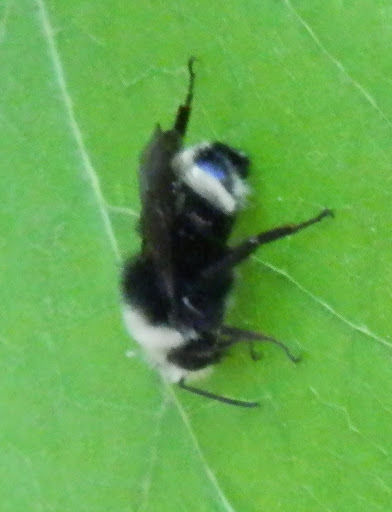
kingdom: Animalia
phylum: Arthropoda
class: Insecta
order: Hymenoptera
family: Apidae
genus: Bombus
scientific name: Bombus vosnesenskii
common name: Vosnesensky bumble bee
